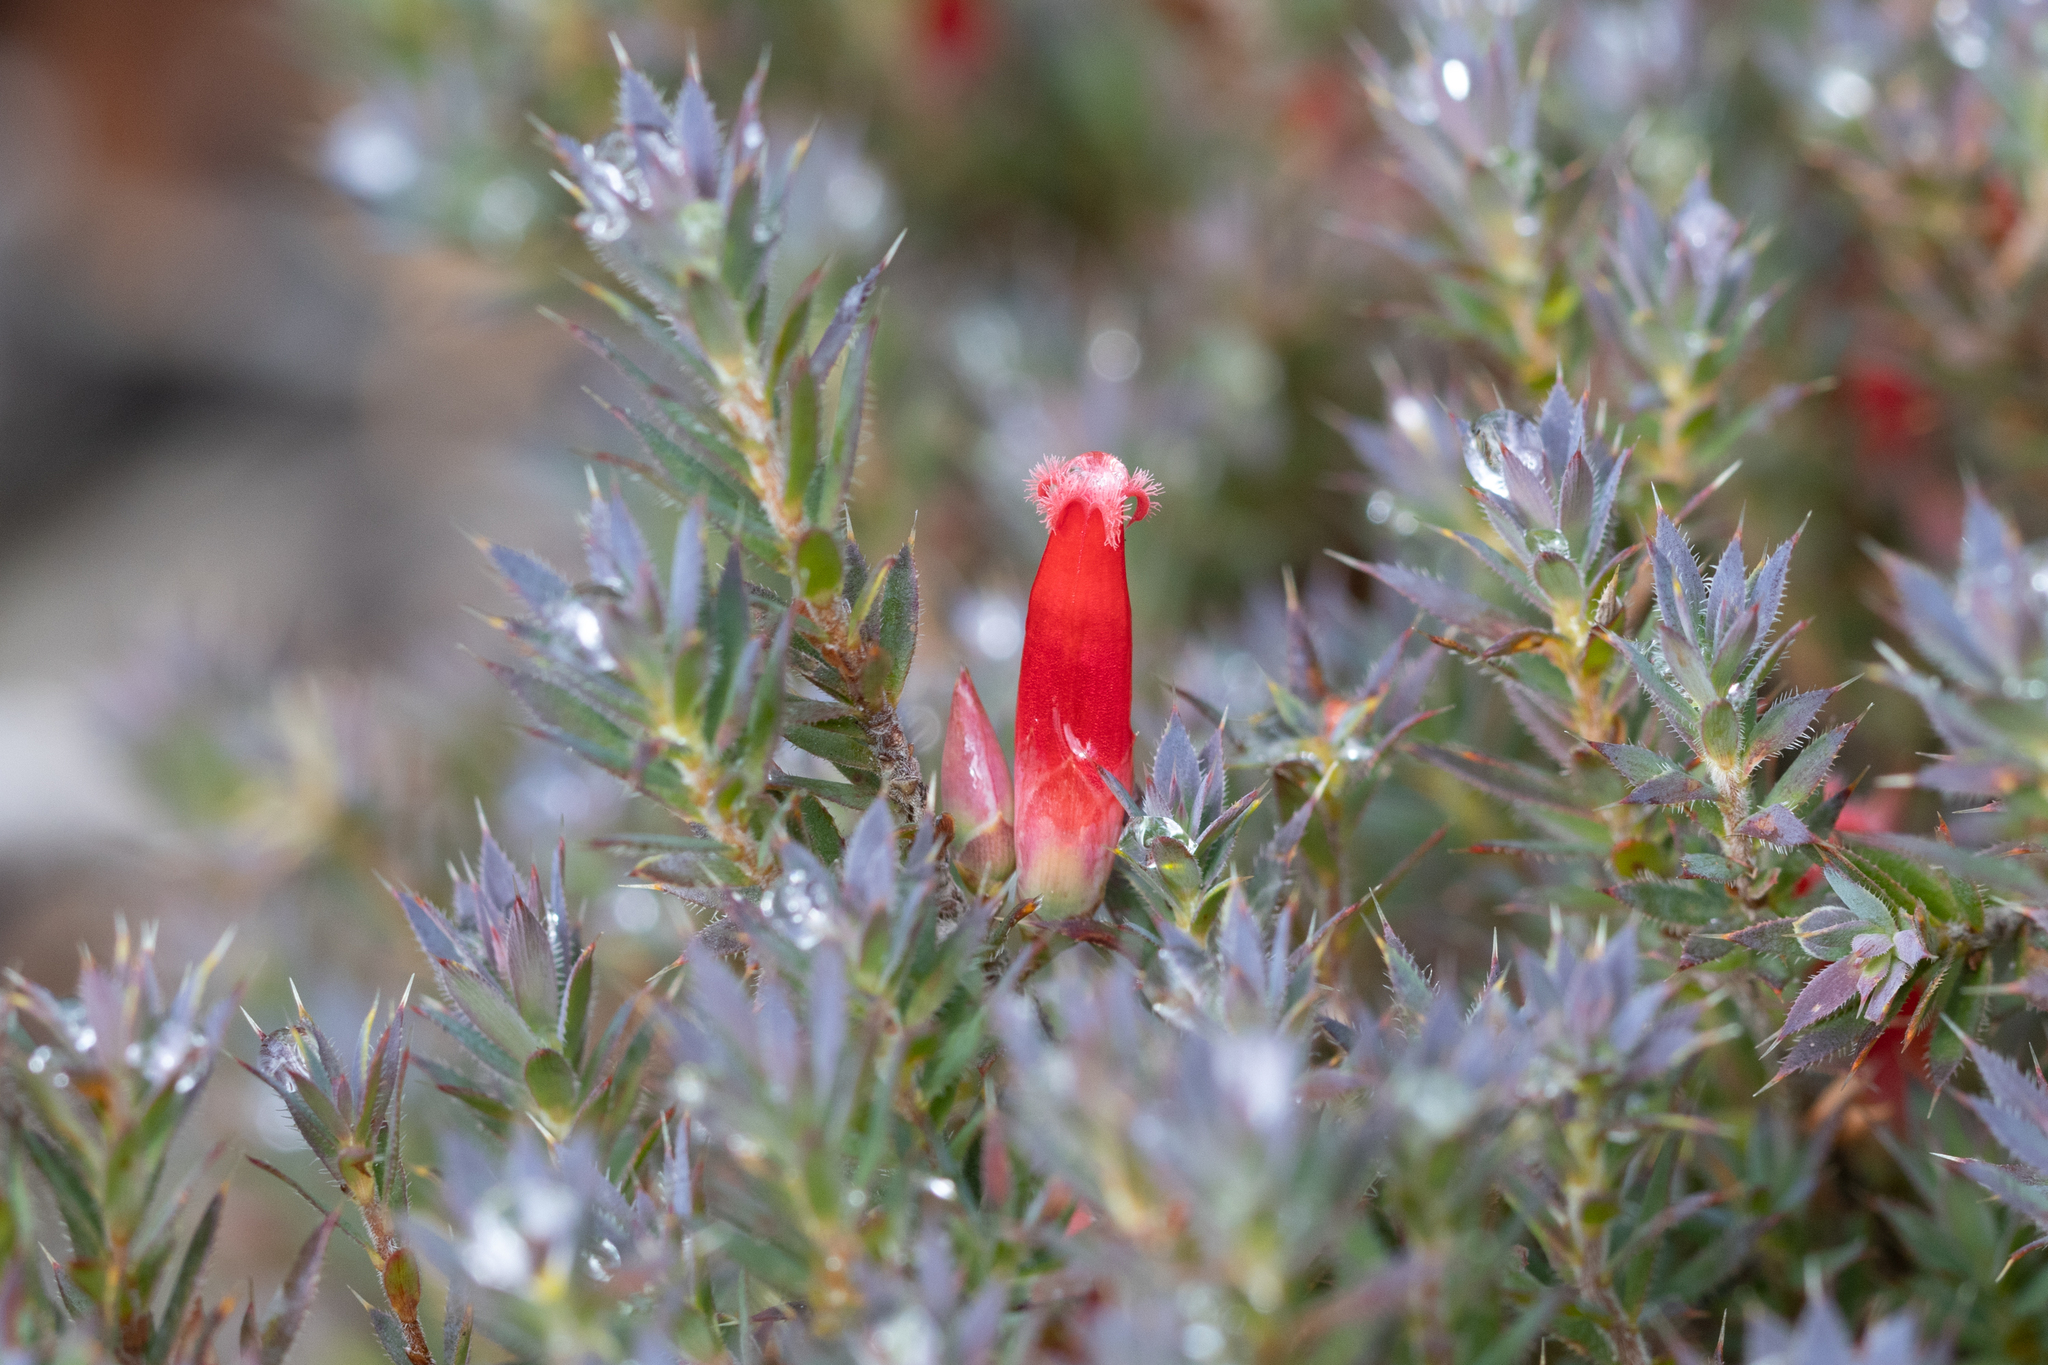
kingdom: Plantae
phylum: Tracheophyta
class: Magnoliopsida
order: Ericales
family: Ericaceae
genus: Styphelia
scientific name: Styphelia humifusa
